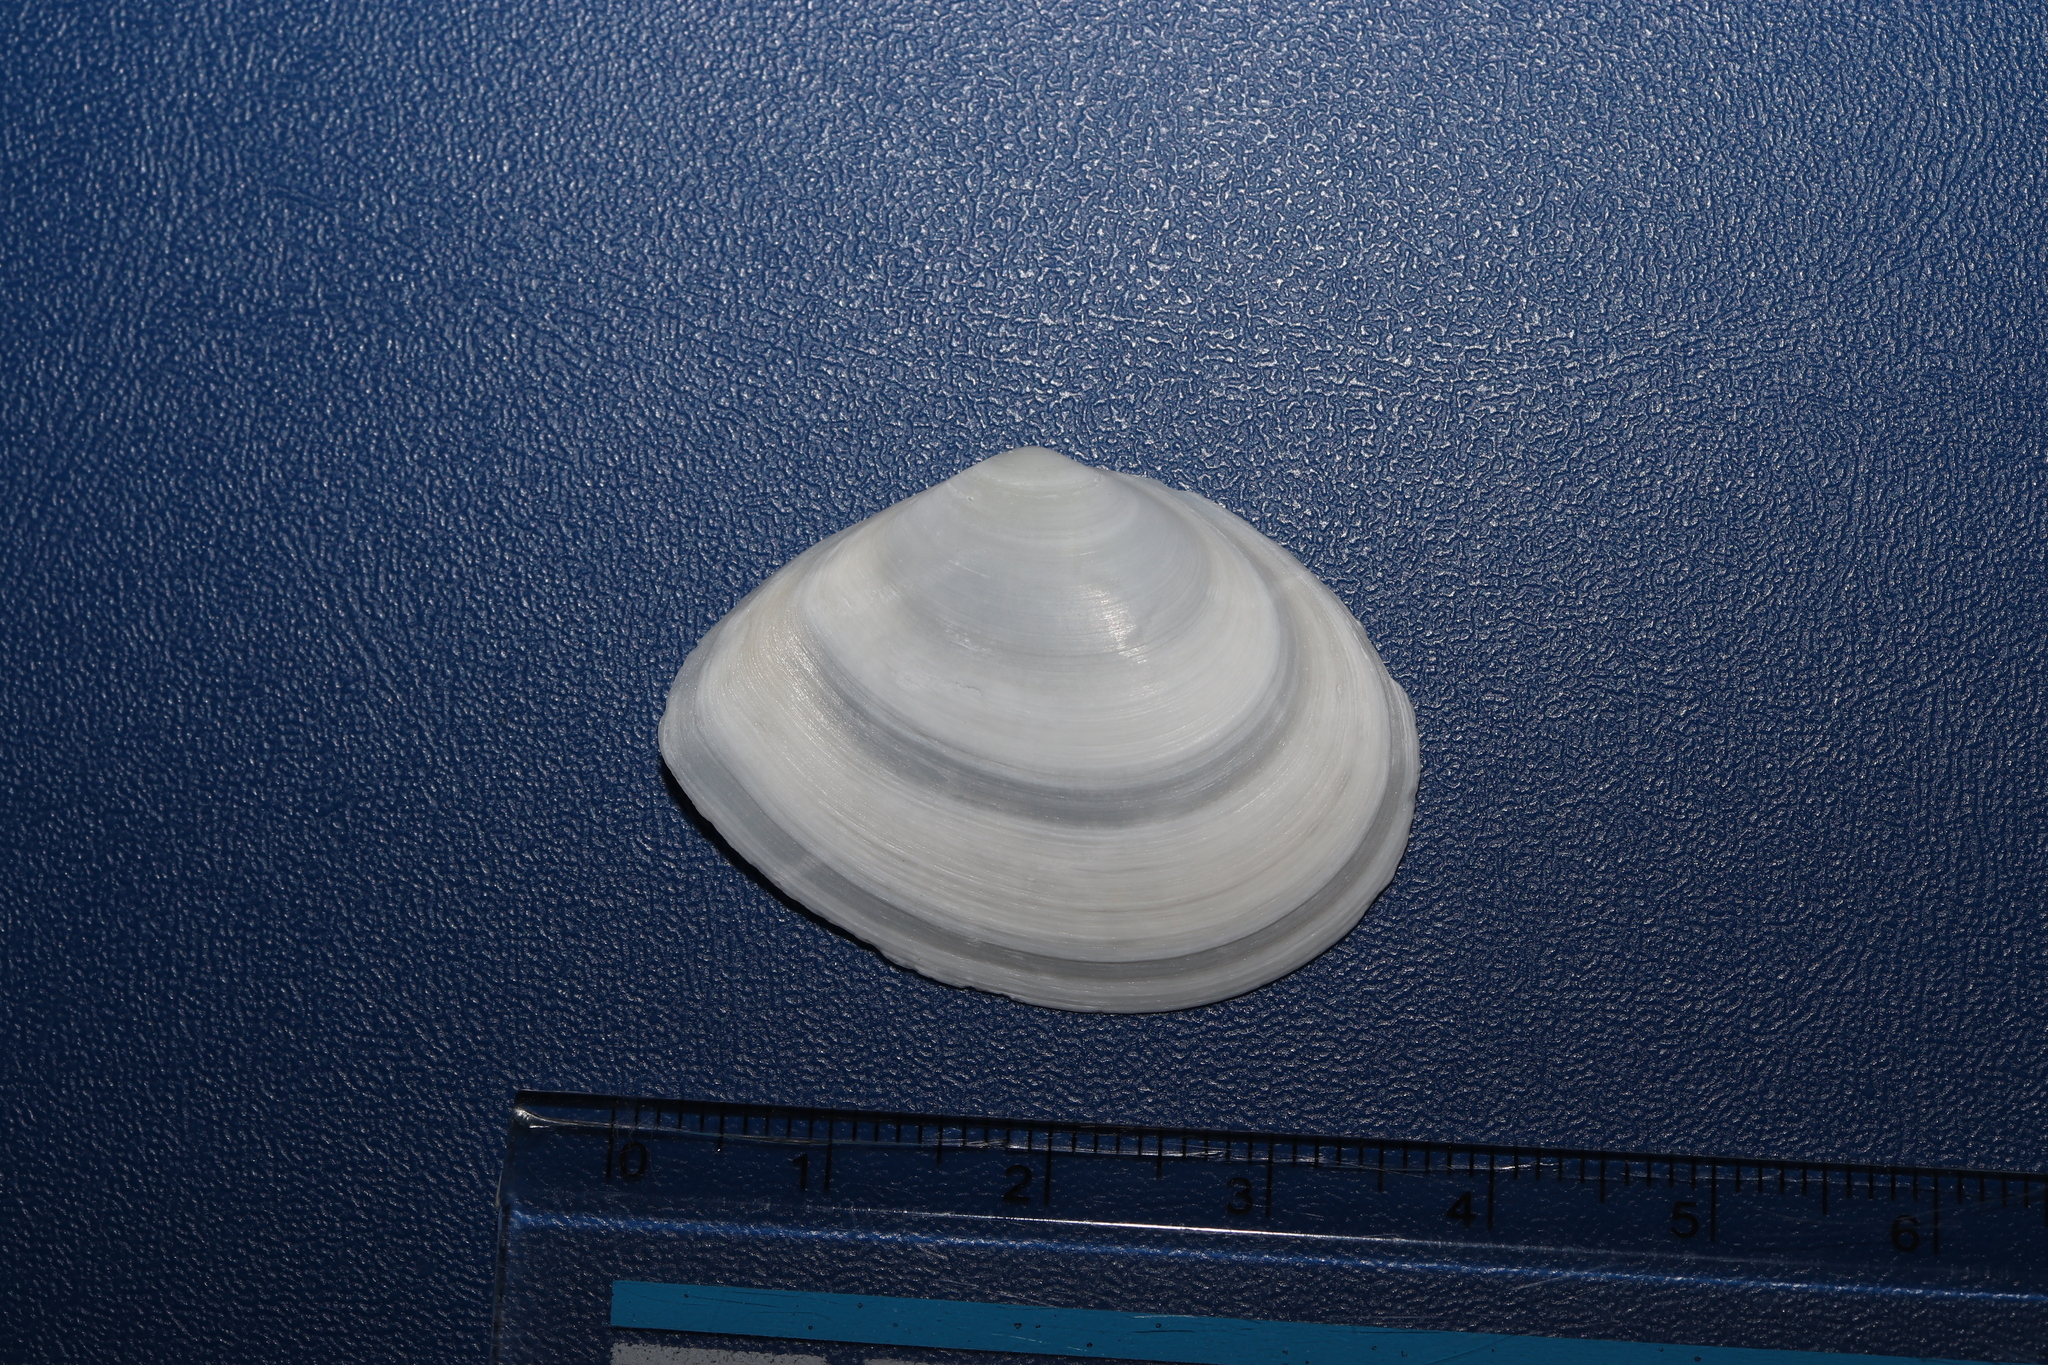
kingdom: Animalia
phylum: Mollusca
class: Bivalvia
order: Cardiida
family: Tellinidae
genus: Rexithaerus
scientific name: Rexithaerus sectior
